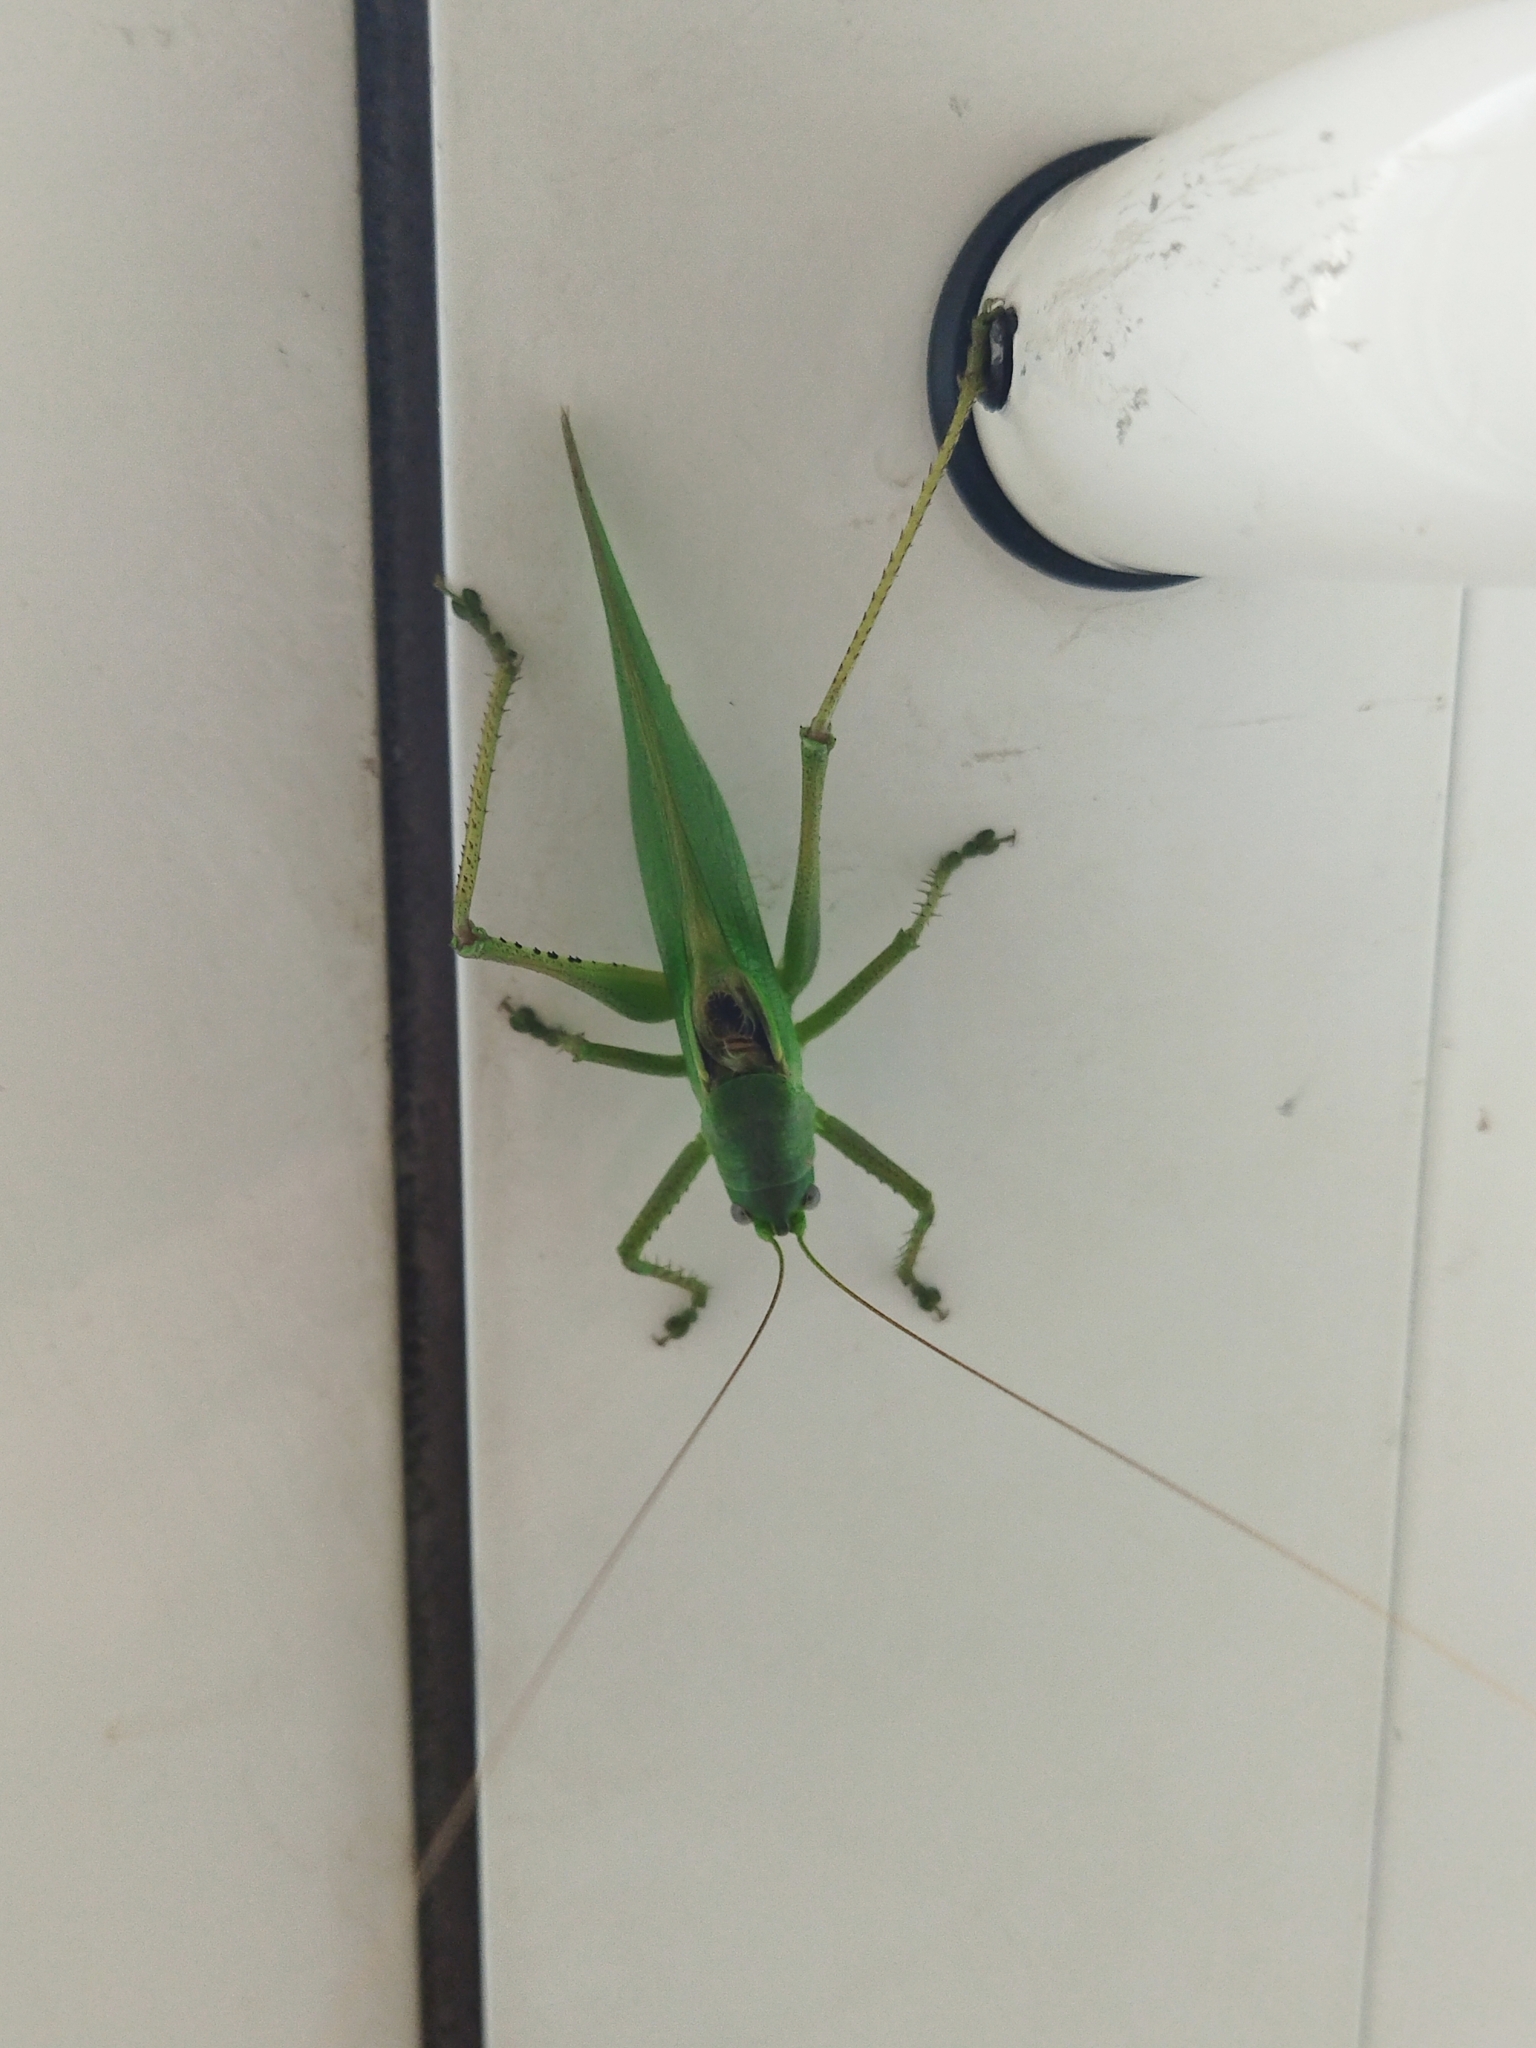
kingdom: Animalia
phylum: Arthropoda
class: Insecta
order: Orthoptera
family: Tettigoniidae
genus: Tettigonia
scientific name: Tettigonia caudata
